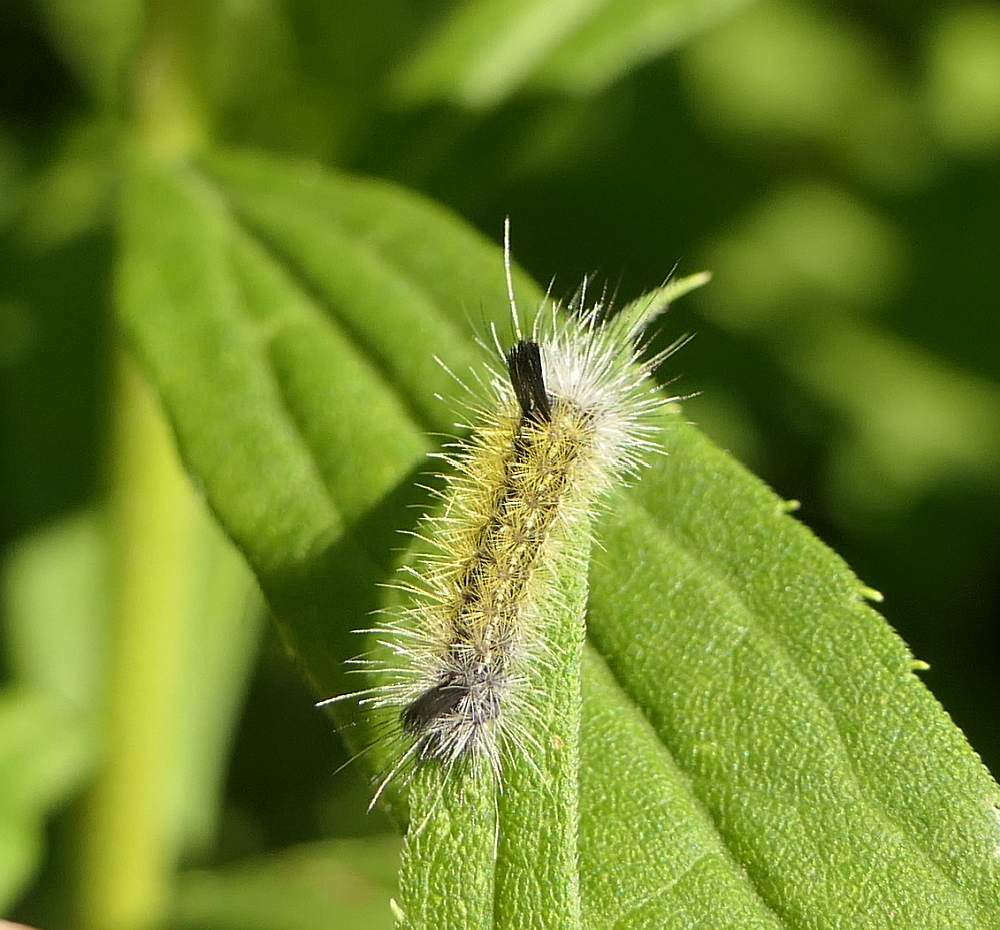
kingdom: Animalia
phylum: Arthropoda
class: Insecta
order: Lepidoptera
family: Erebidae
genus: Ctenucha
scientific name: Ctenucha virginica
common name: Virginia ctenucha moth
